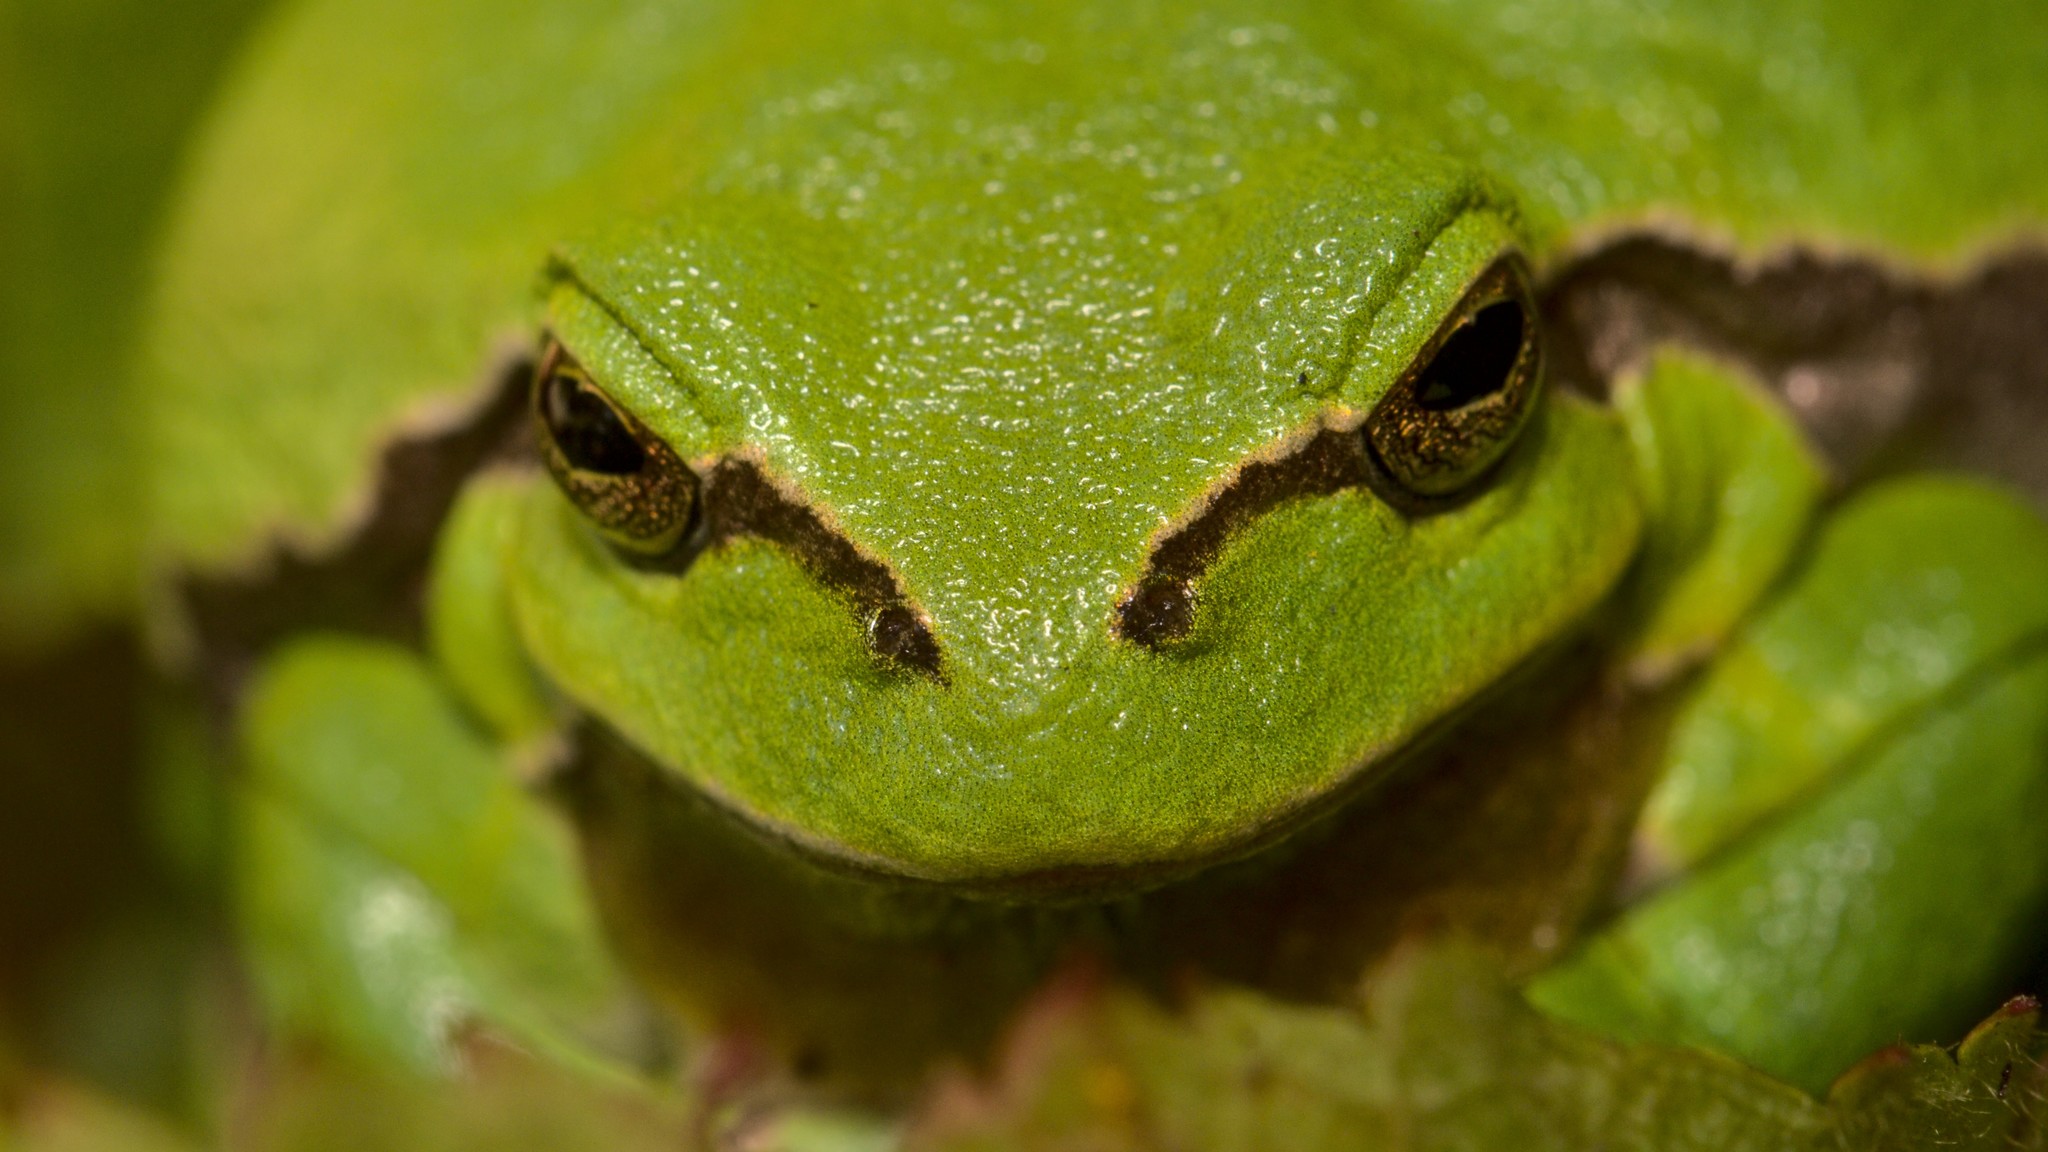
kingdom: Animalia
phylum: Chordata
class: Amphibia
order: Anura
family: Hylidae
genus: Hyla
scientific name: Hyla arborea
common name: Common tree frog
